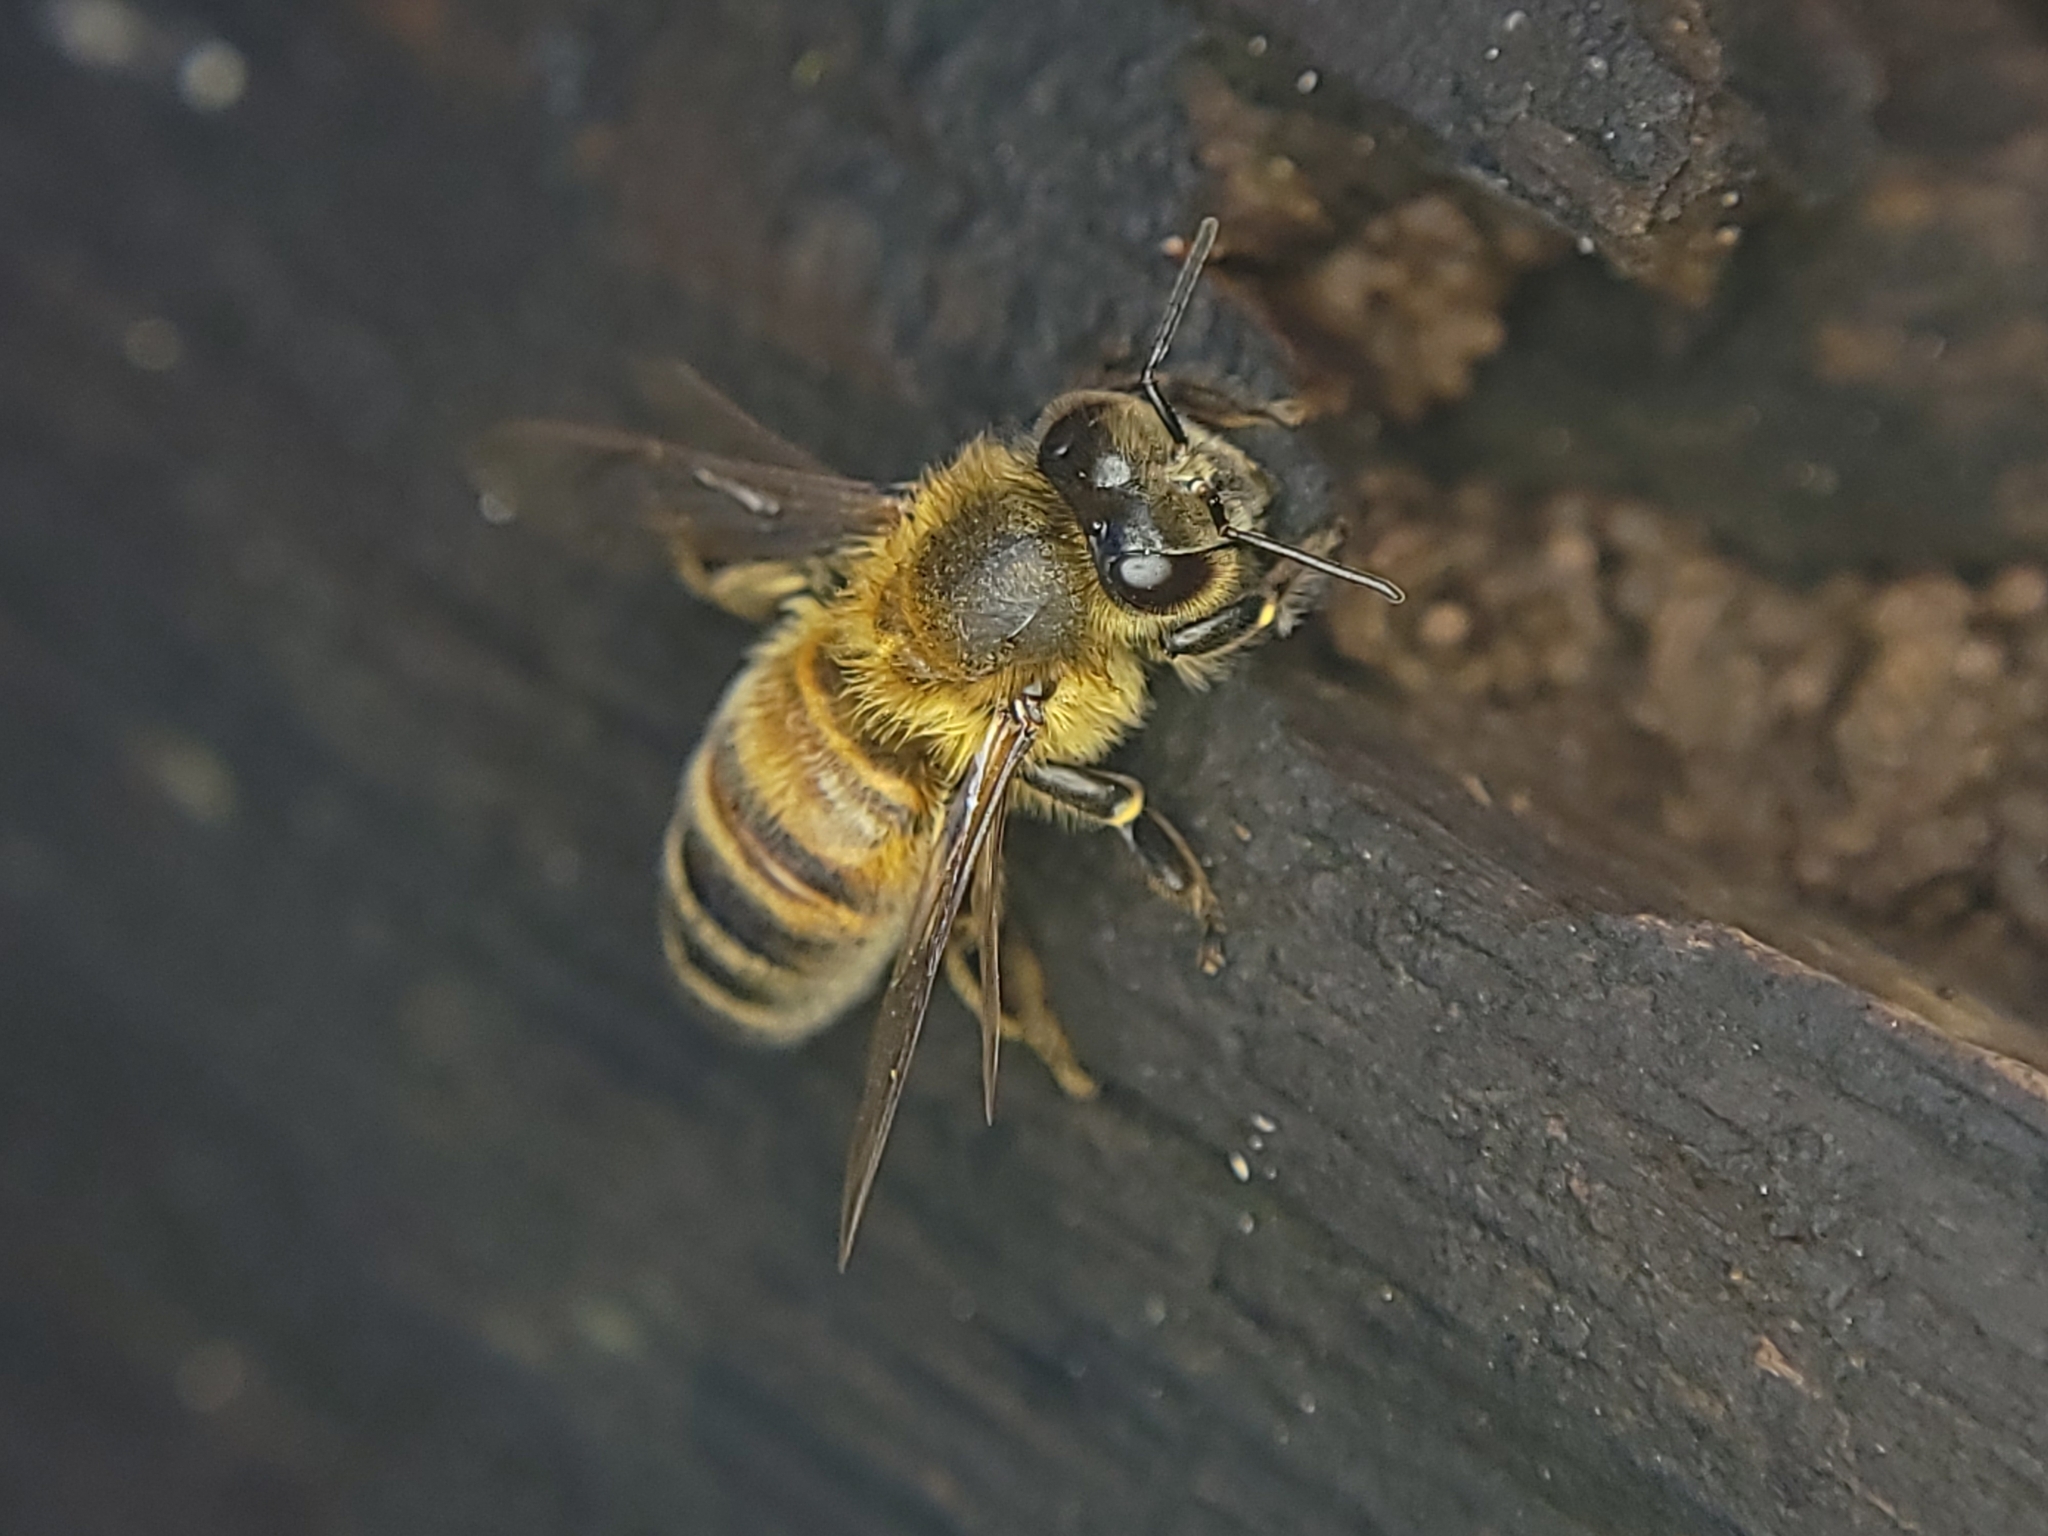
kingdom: Animalia
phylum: Arthropoda
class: Insecta
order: Hymenoptera
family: Apidae
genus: Apis
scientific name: Apis mellifera
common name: Honey bee
